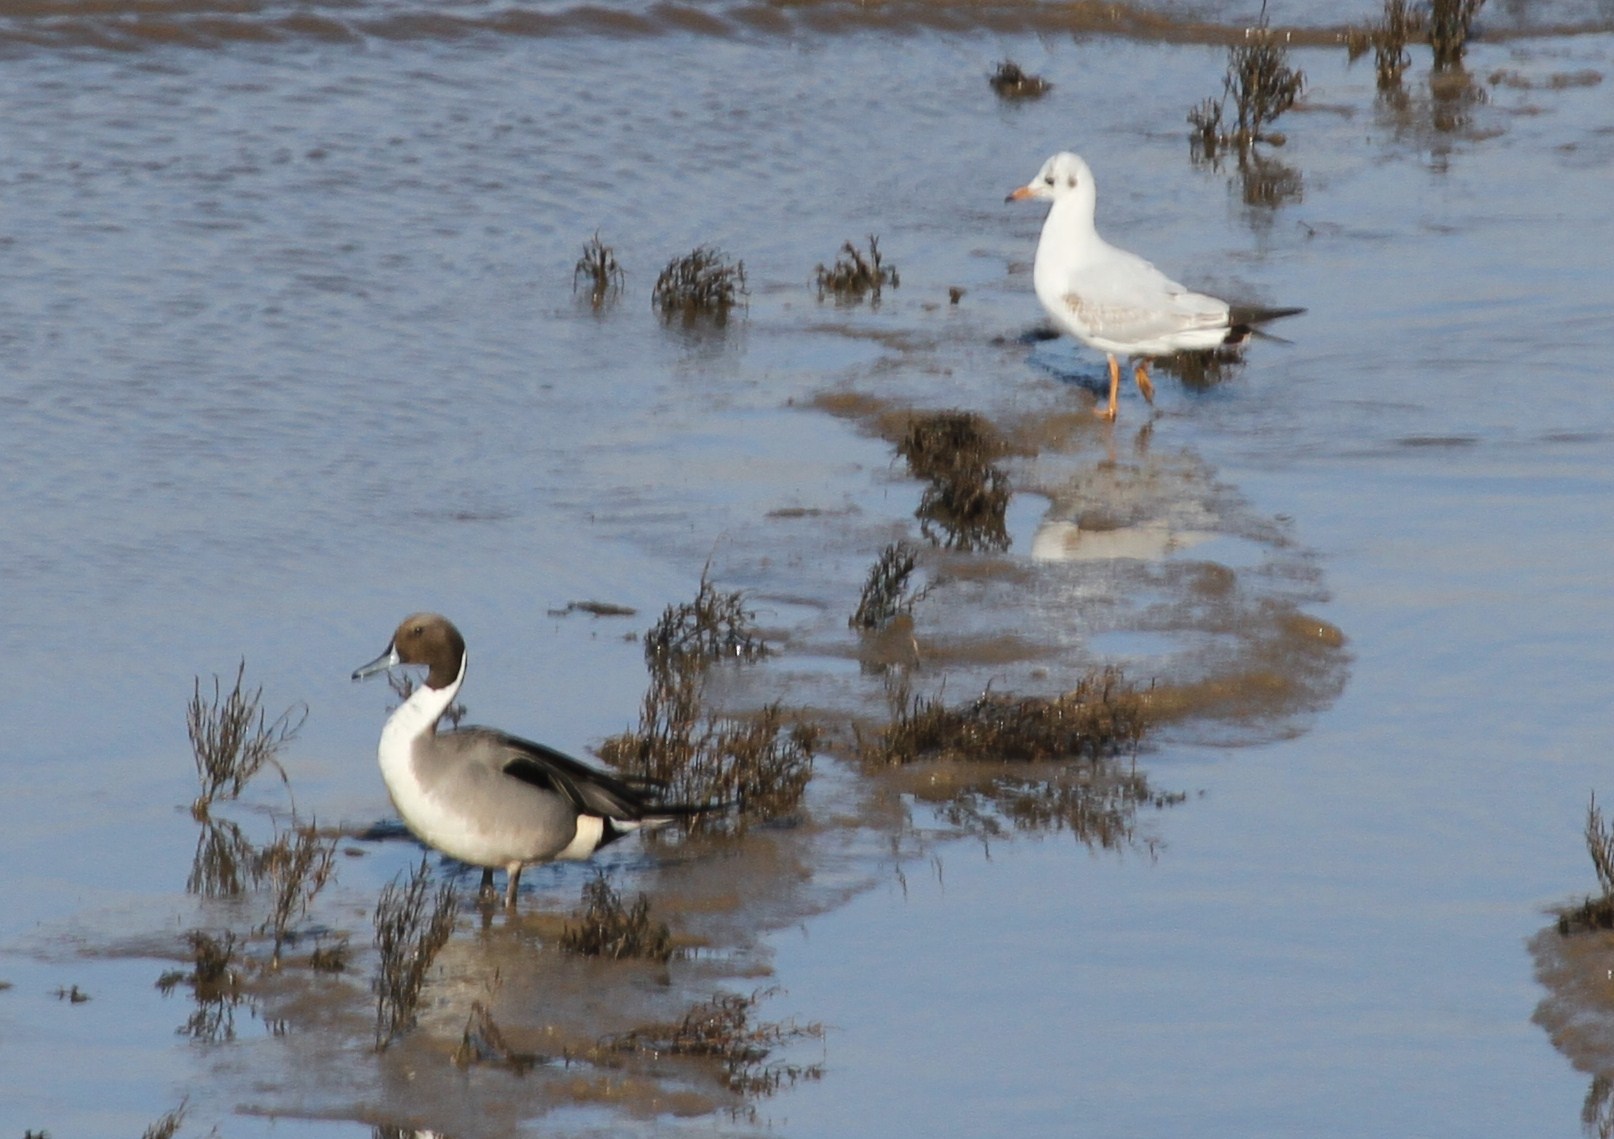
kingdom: Animalia
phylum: Chordata
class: Aves
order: Anseriformes
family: Anatidae
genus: Anas
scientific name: Anas acuta
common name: Northern pintail
